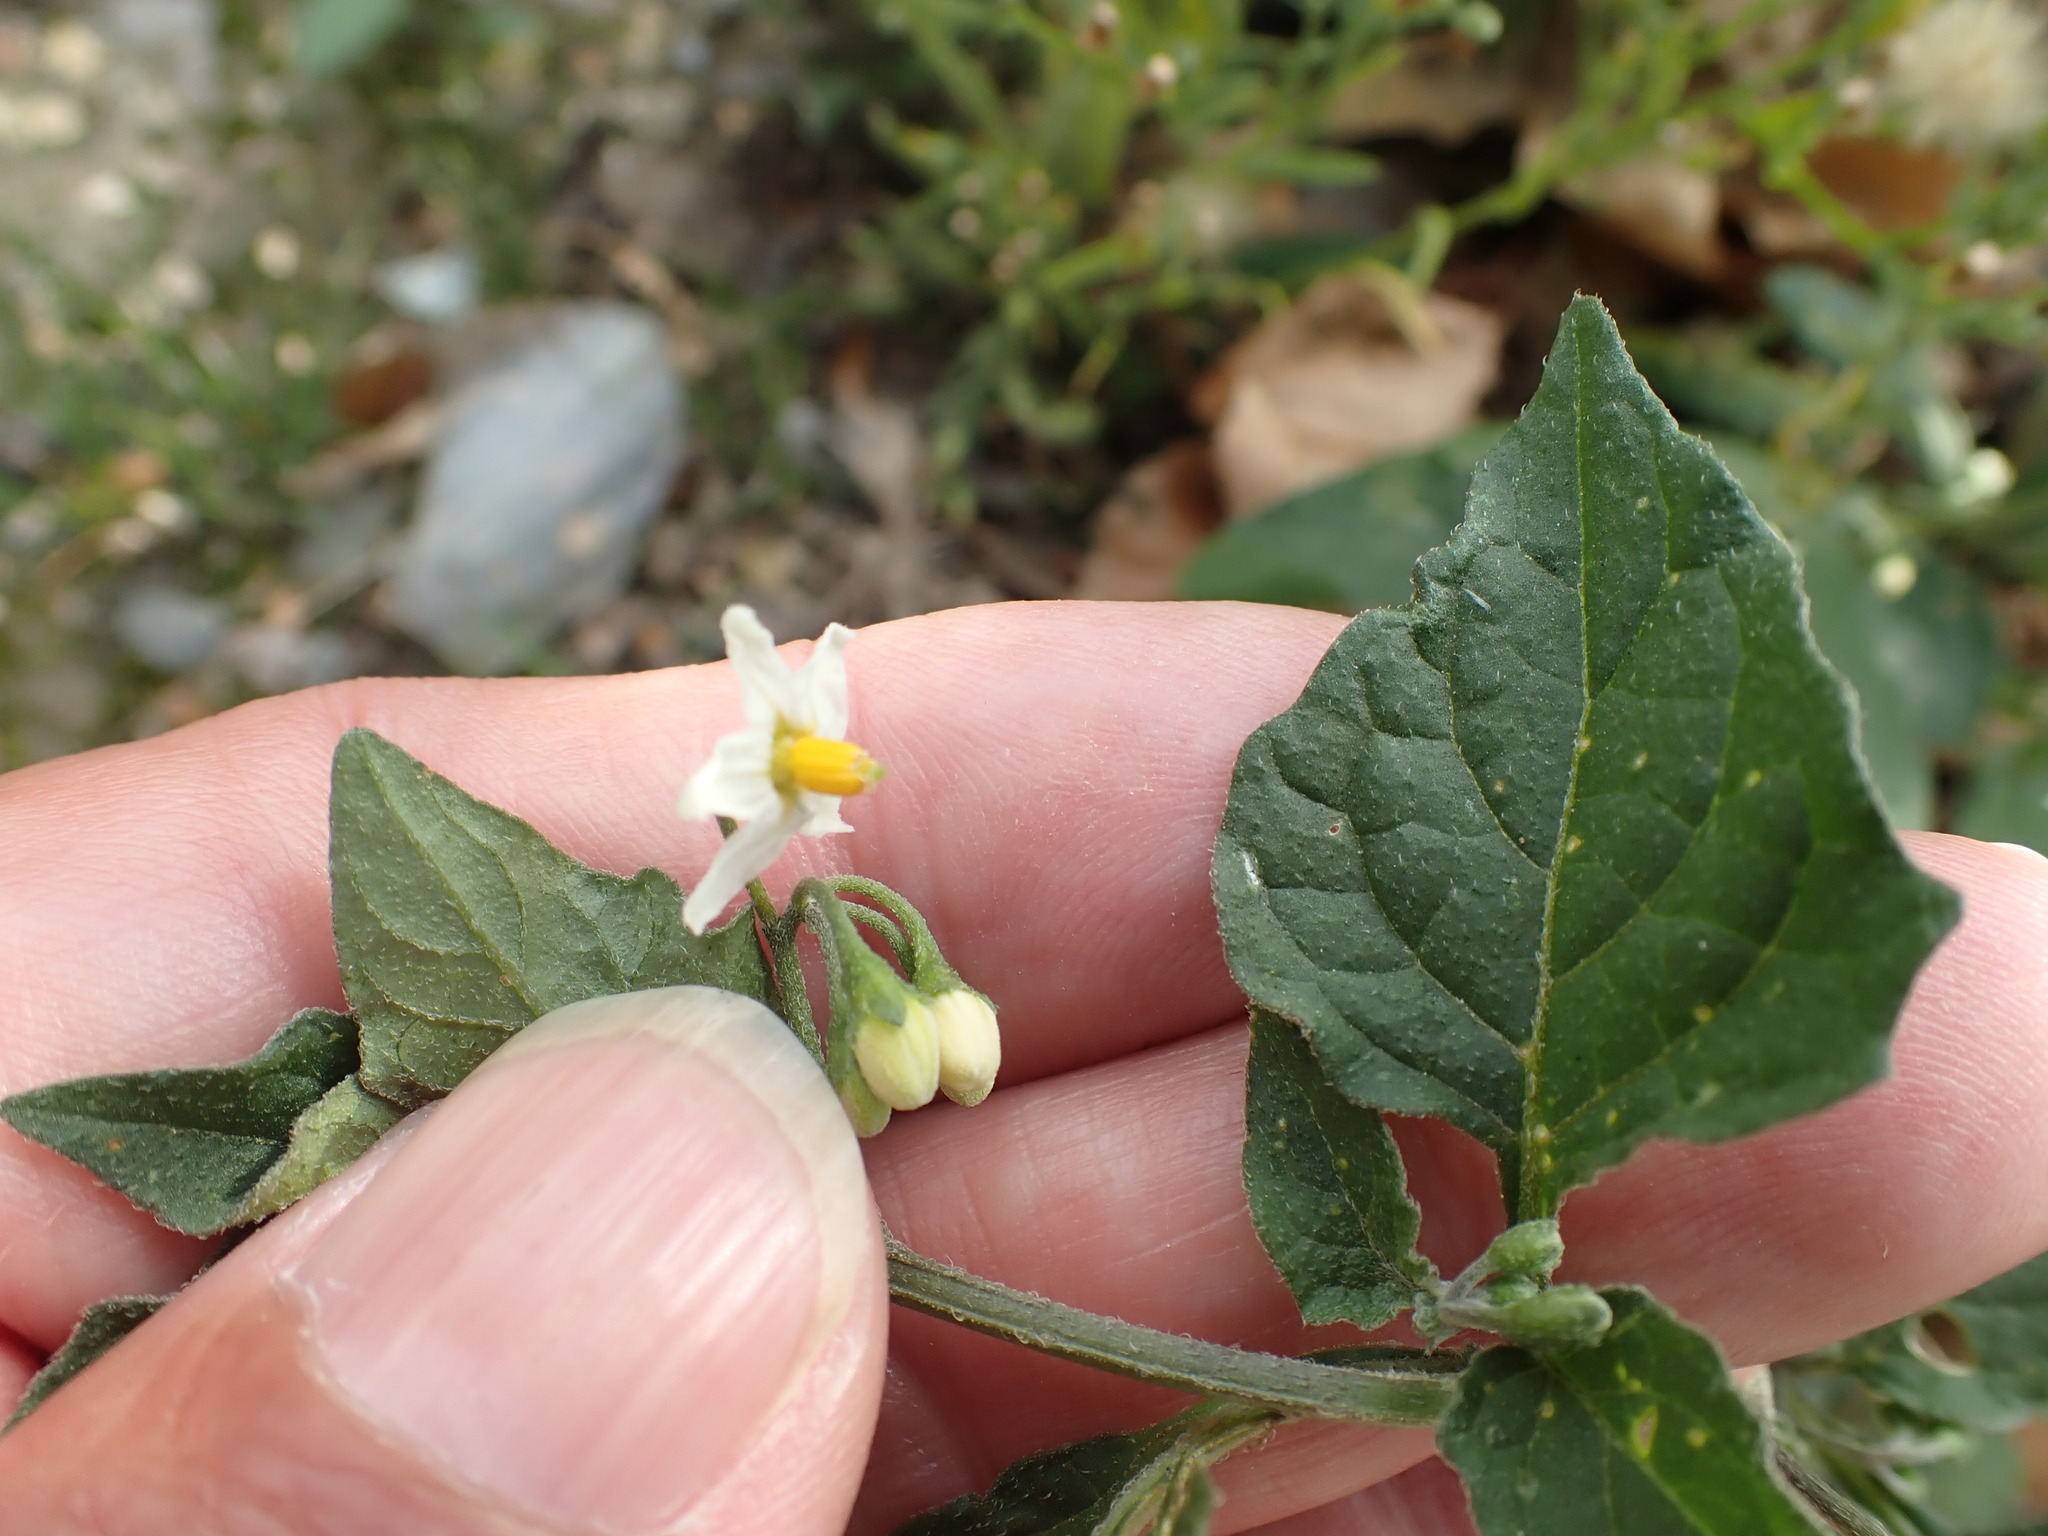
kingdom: Plantae
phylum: Tracheophyta
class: Magnoliopsida
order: Solanales
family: Solanaceae
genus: Solanum
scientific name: Solanum nigrum
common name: Black nightshade
